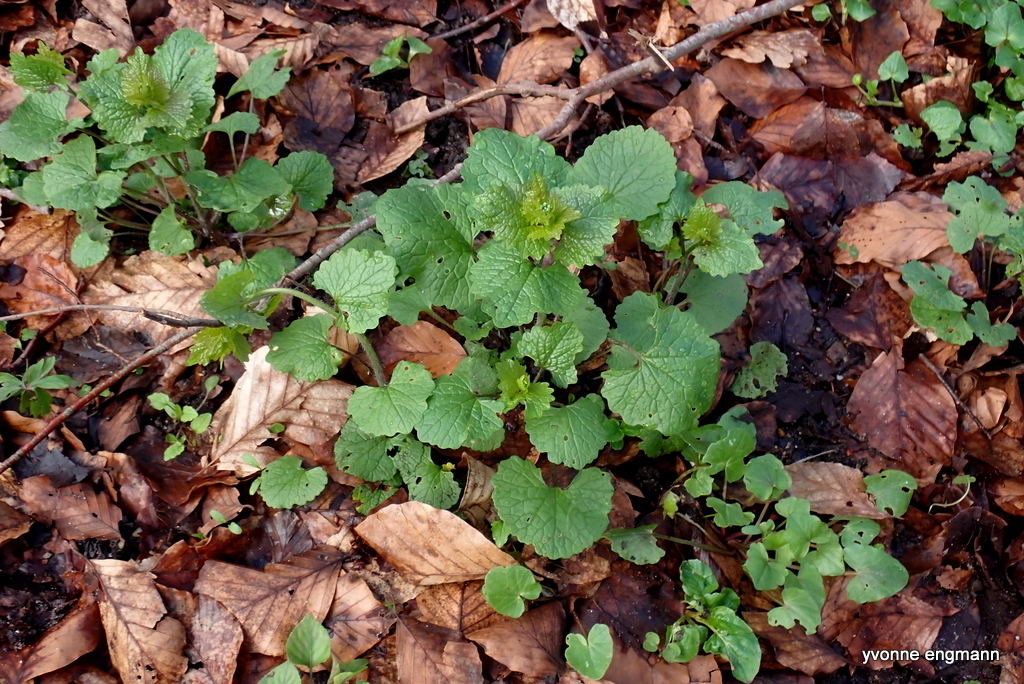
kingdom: Plantae
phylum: Tracheophyta
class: Magnoliopsida
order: Brassicales
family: Brassicaceae
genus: Alliaria
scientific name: Alliaria petiolata
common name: Garlic mustard
